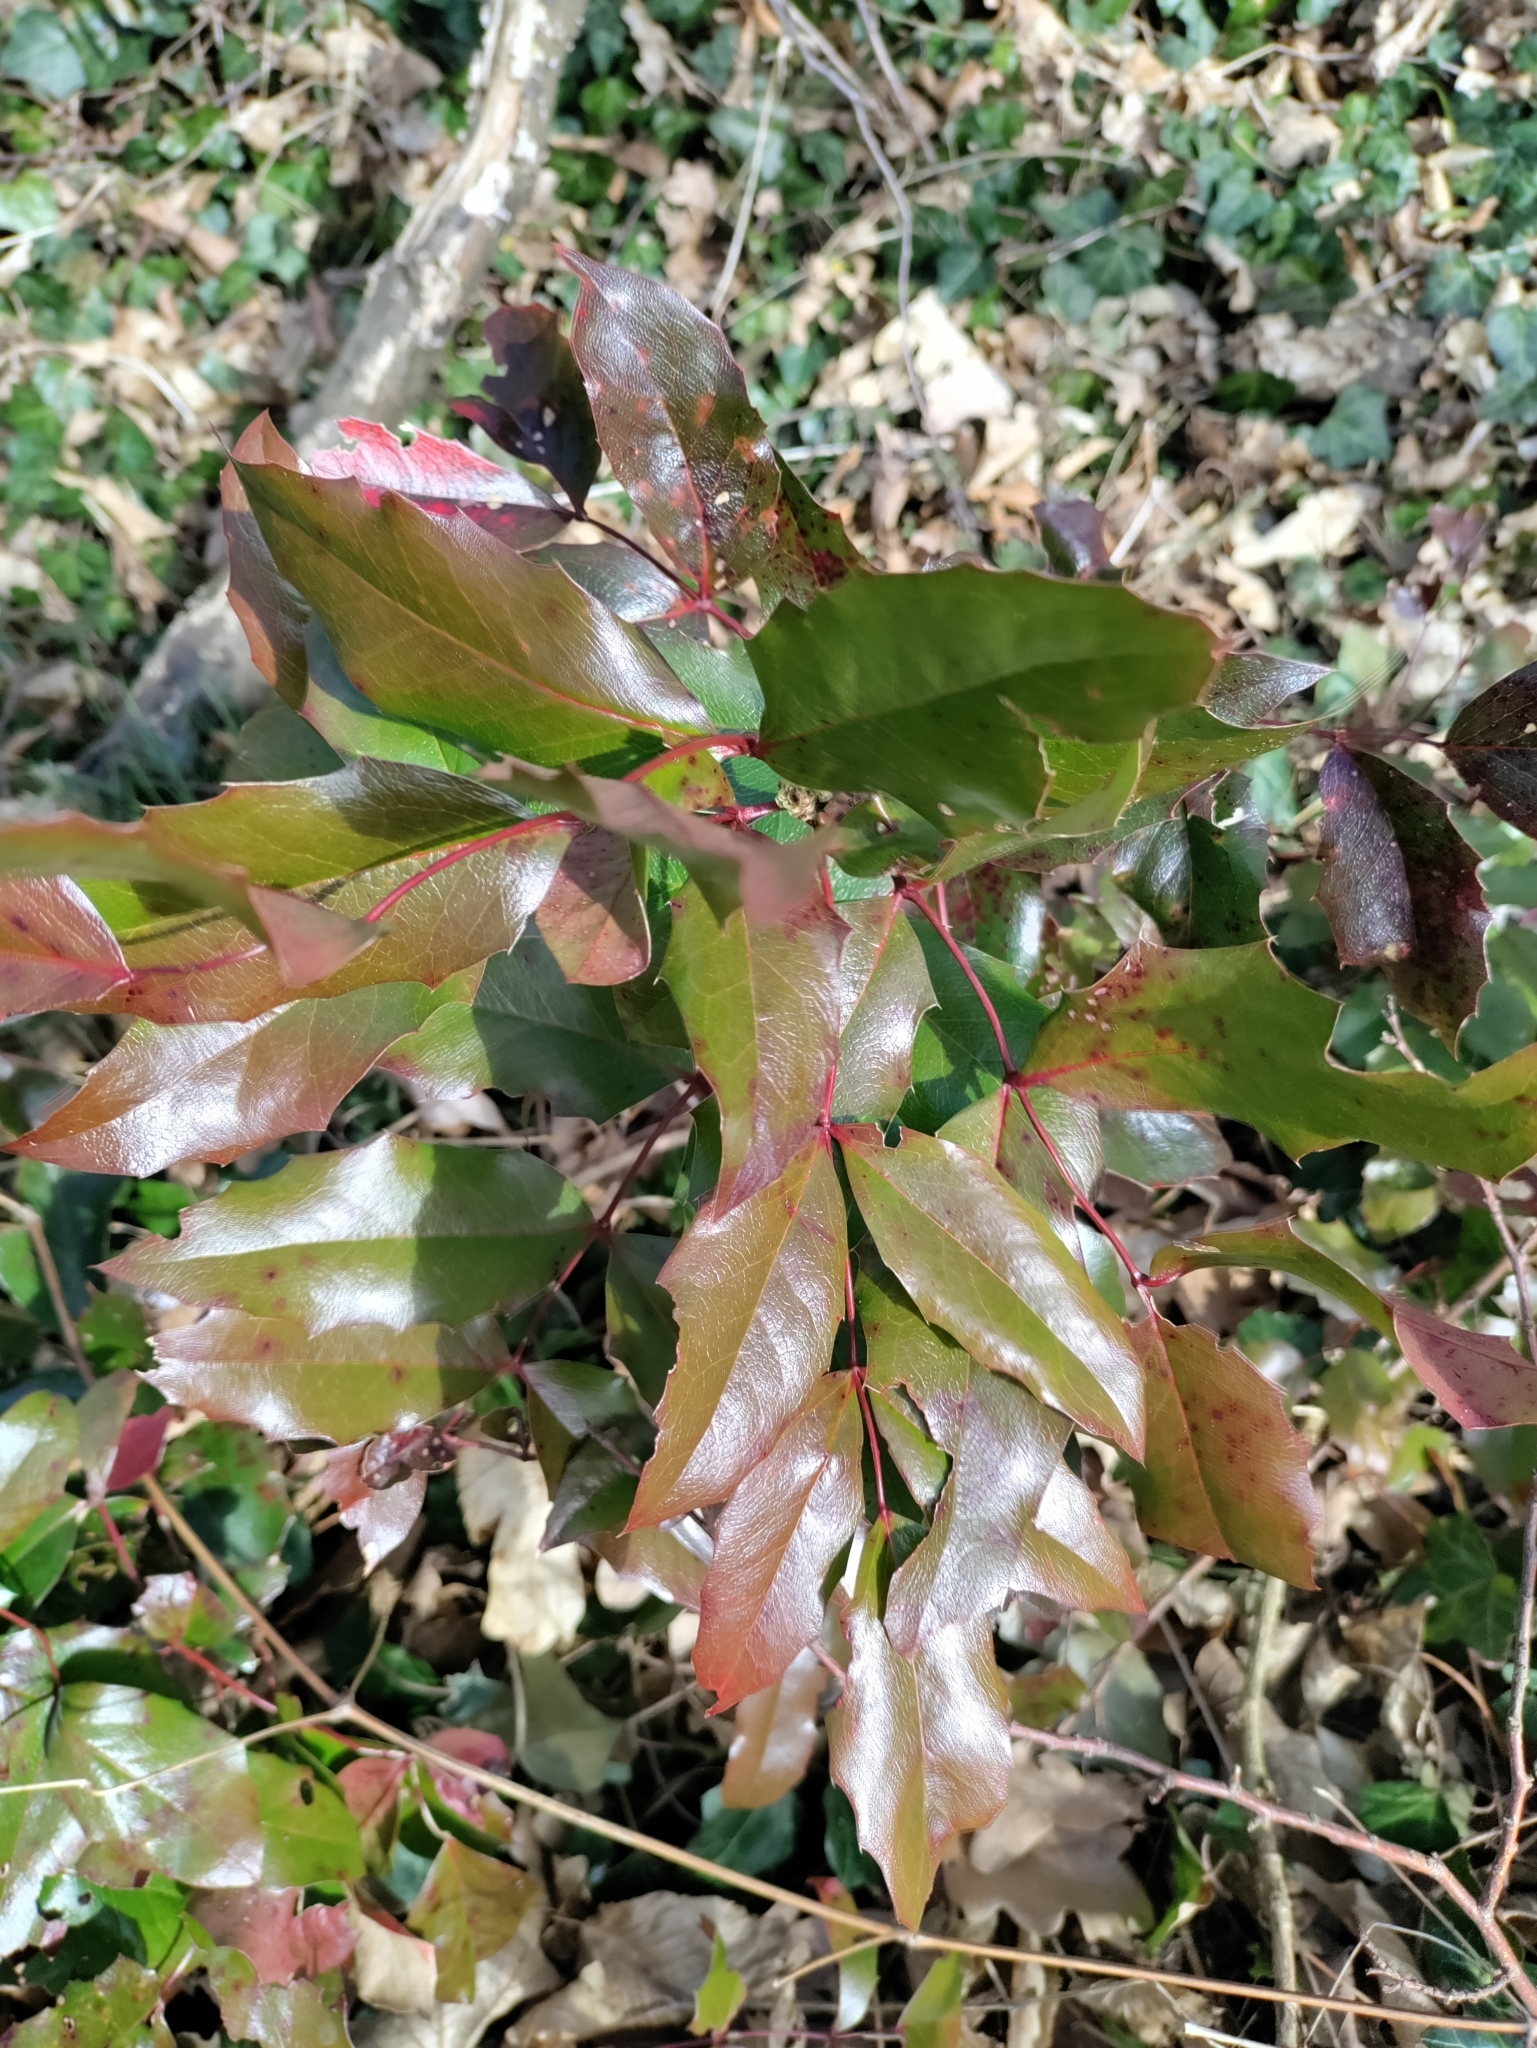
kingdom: Plantae
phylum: Tracheophyta
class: Magnoliopsida
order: Ranunculales
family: Berberidaceae
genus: Mahonia
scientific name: Mahonia aquifolium
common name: Oregon-grape
